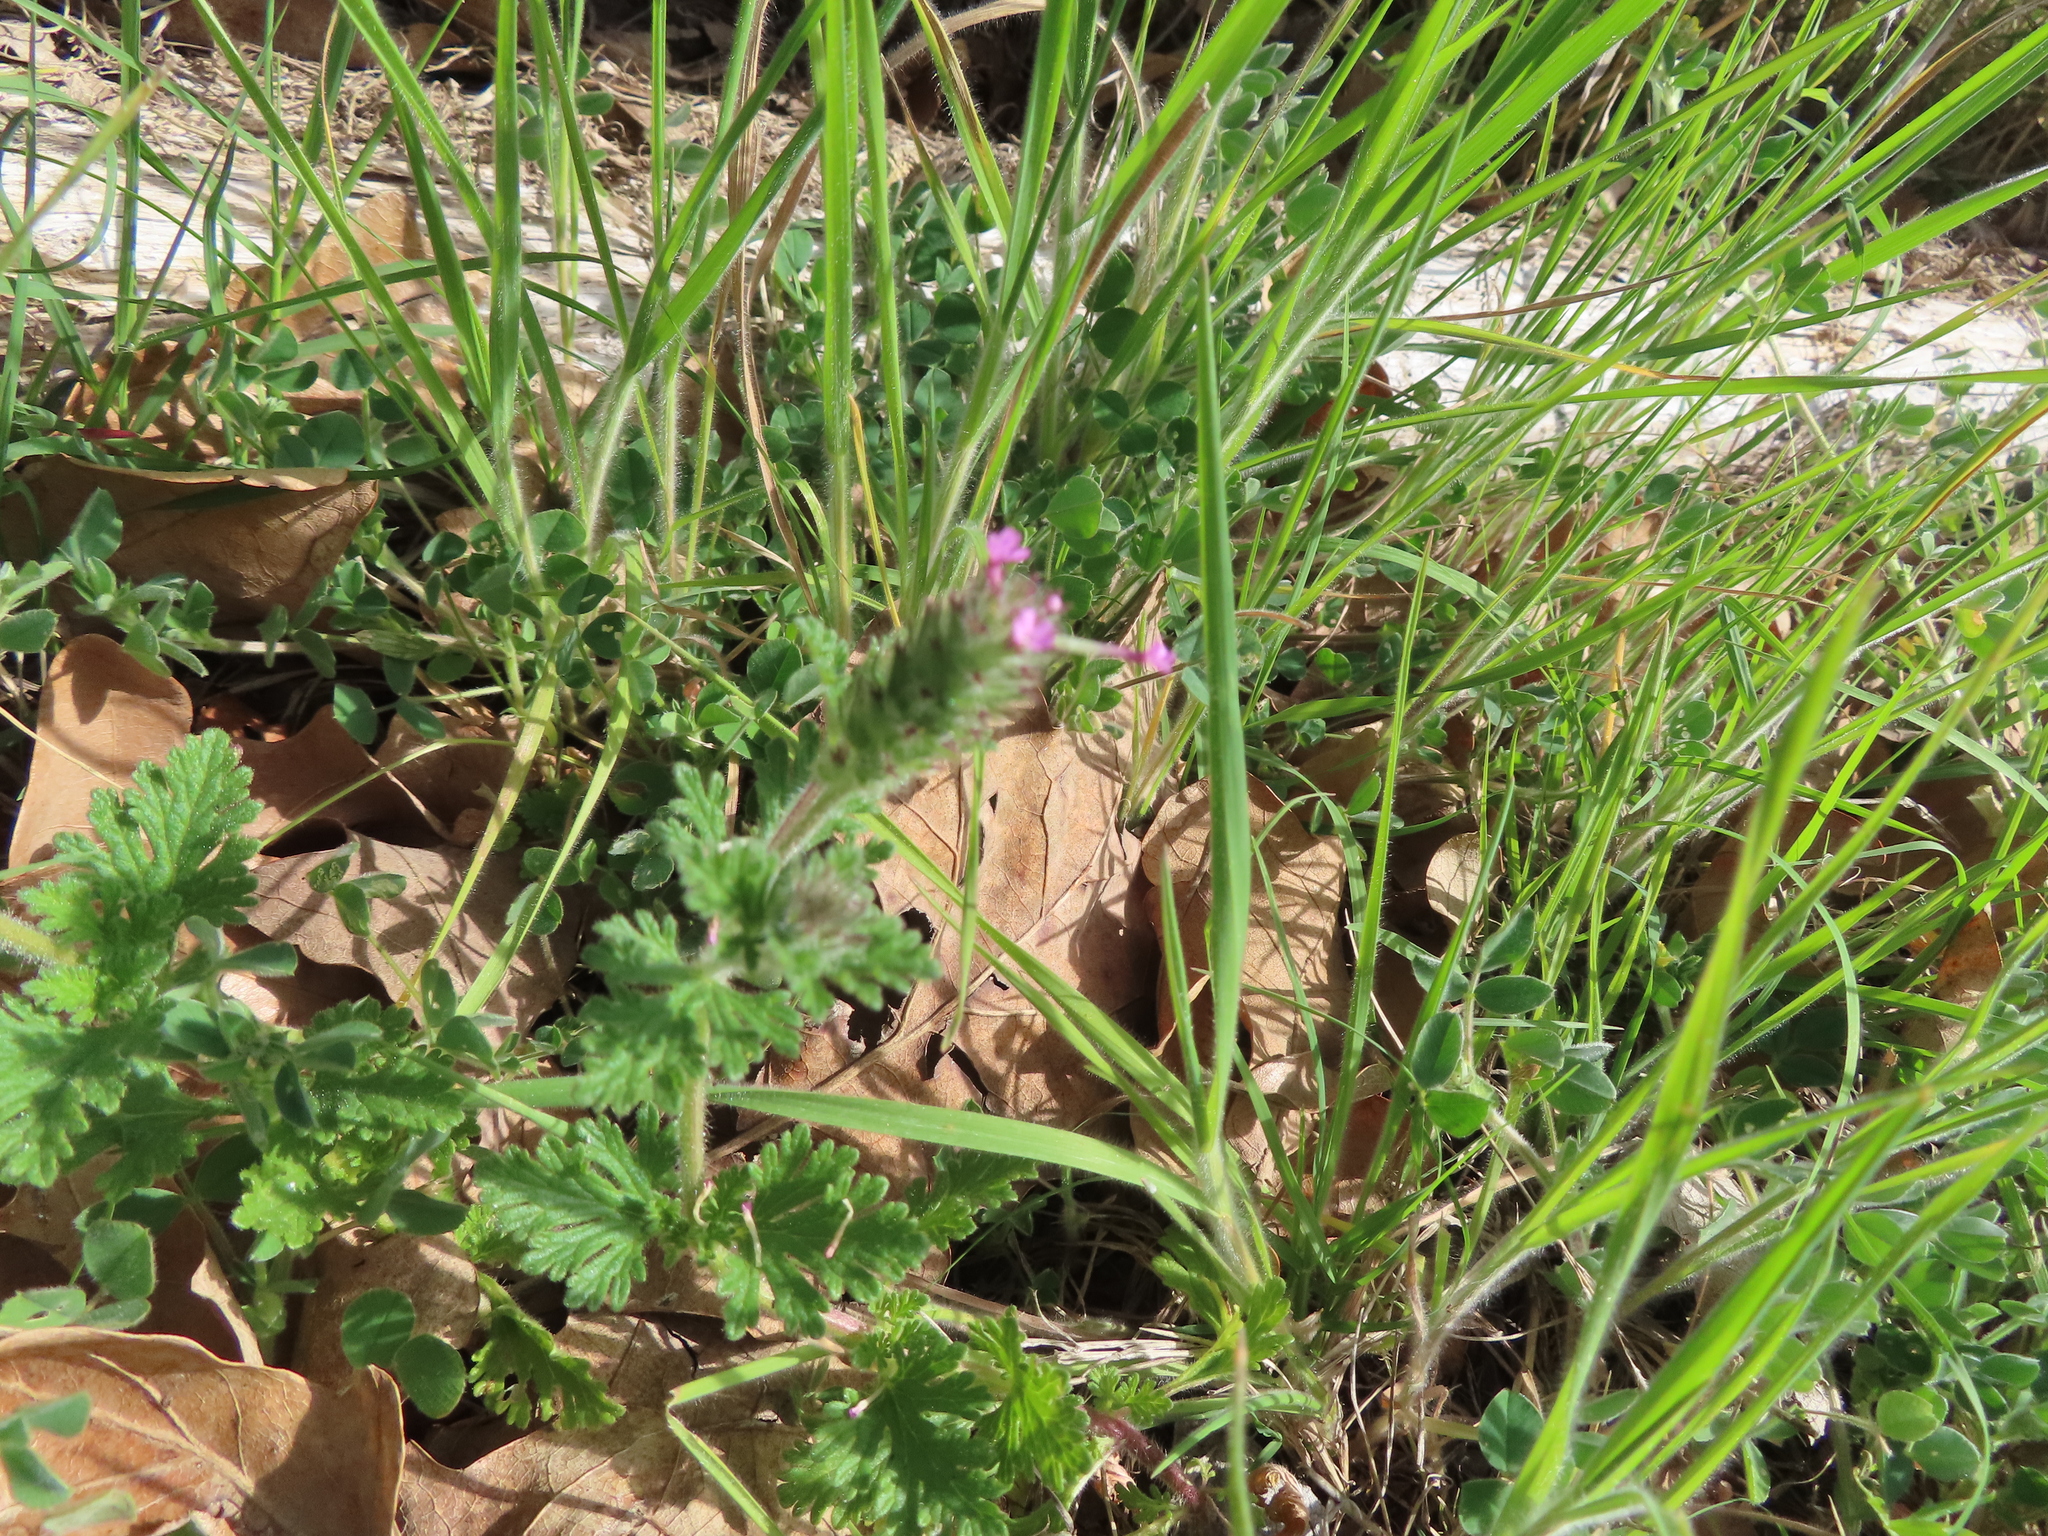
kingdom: Plantae
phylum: Tracheophyta
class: Magnoliopsida
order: Lamiales
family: Verbenaceae
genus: Verbena
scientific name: Verbena pumila
